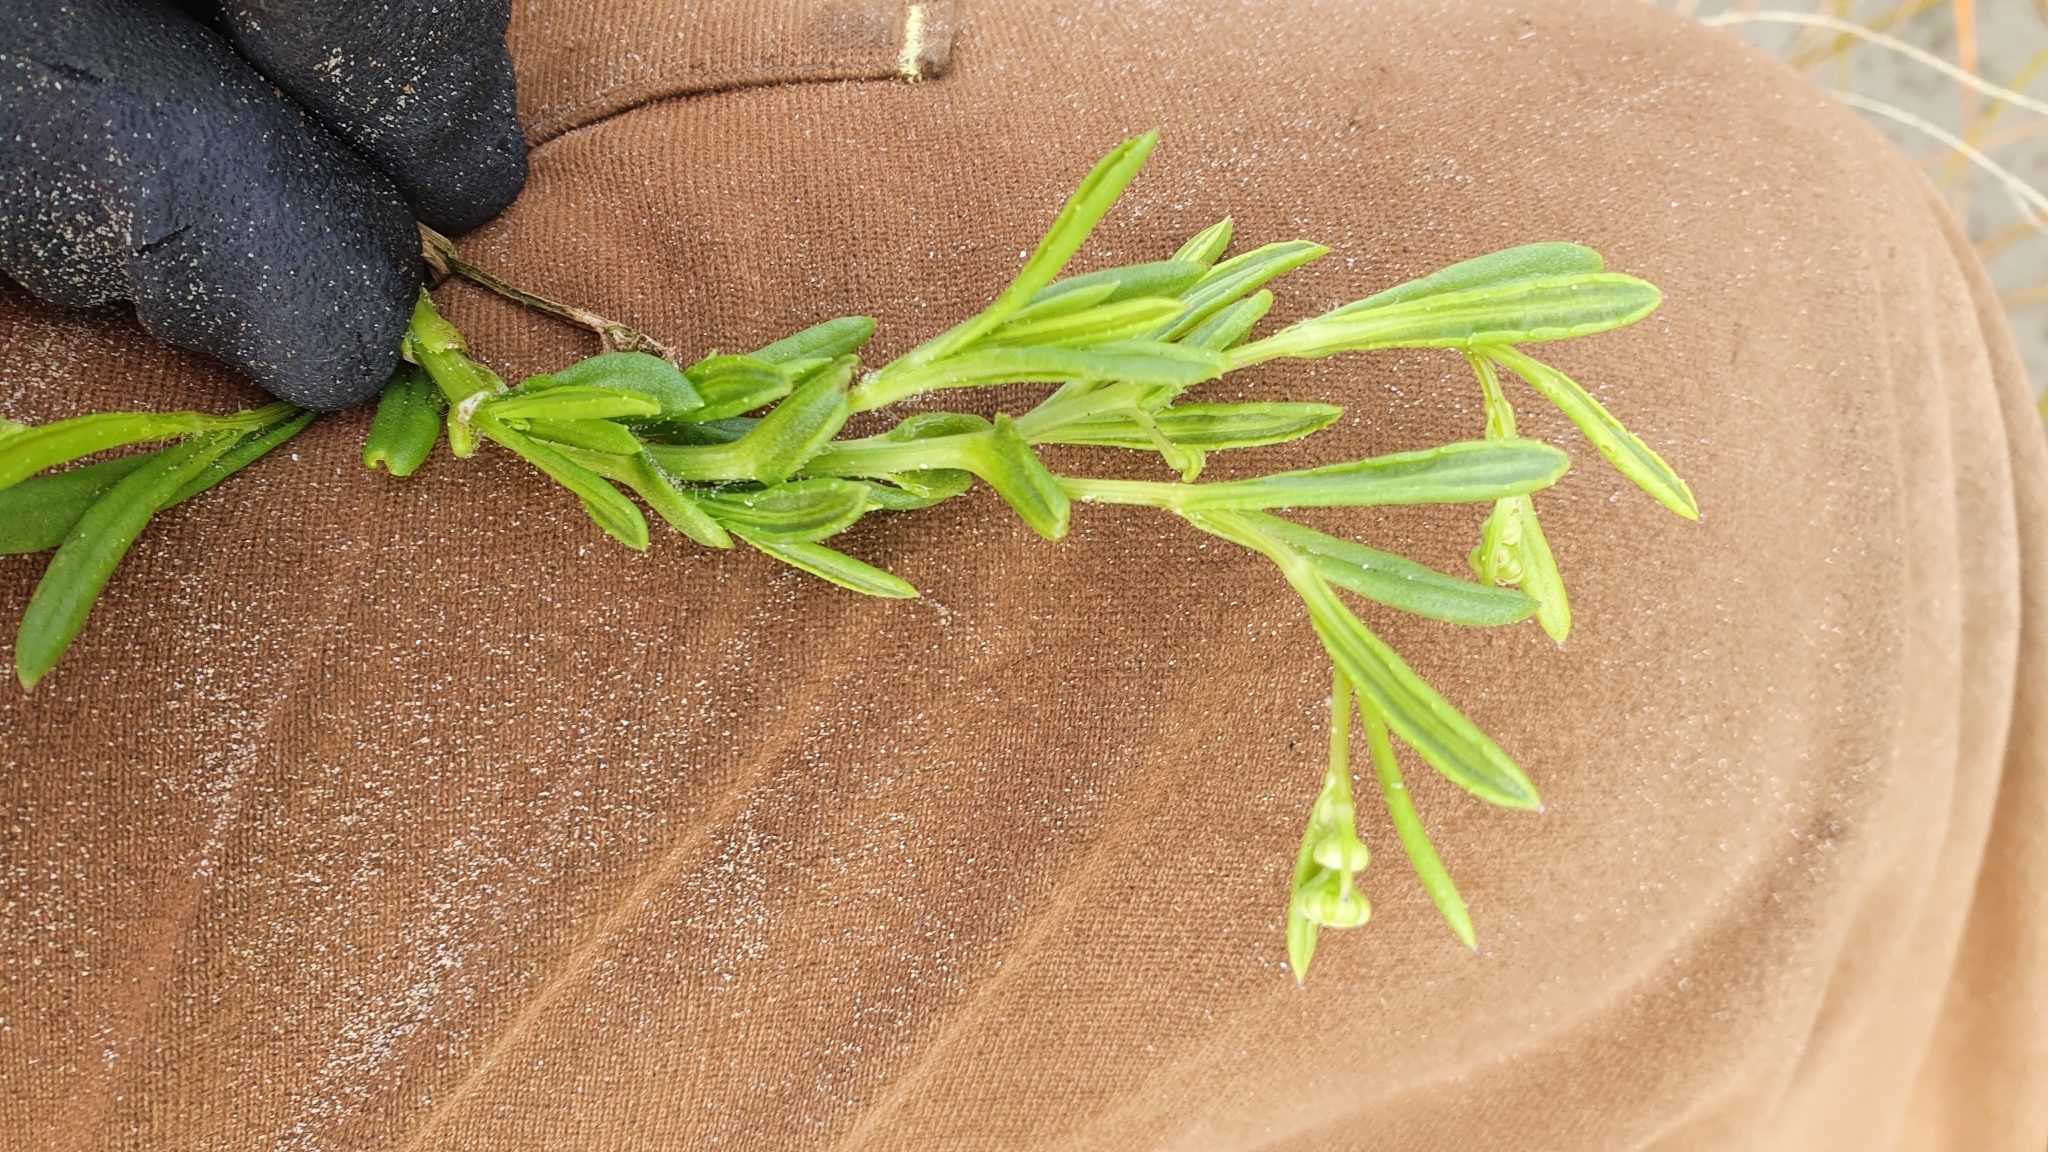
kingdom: Plantae
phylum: Tracheophyta
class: Magnoliopsida
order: Asterales
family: Asteraceae
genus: Senecio
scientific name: Senecio skirrhodon
